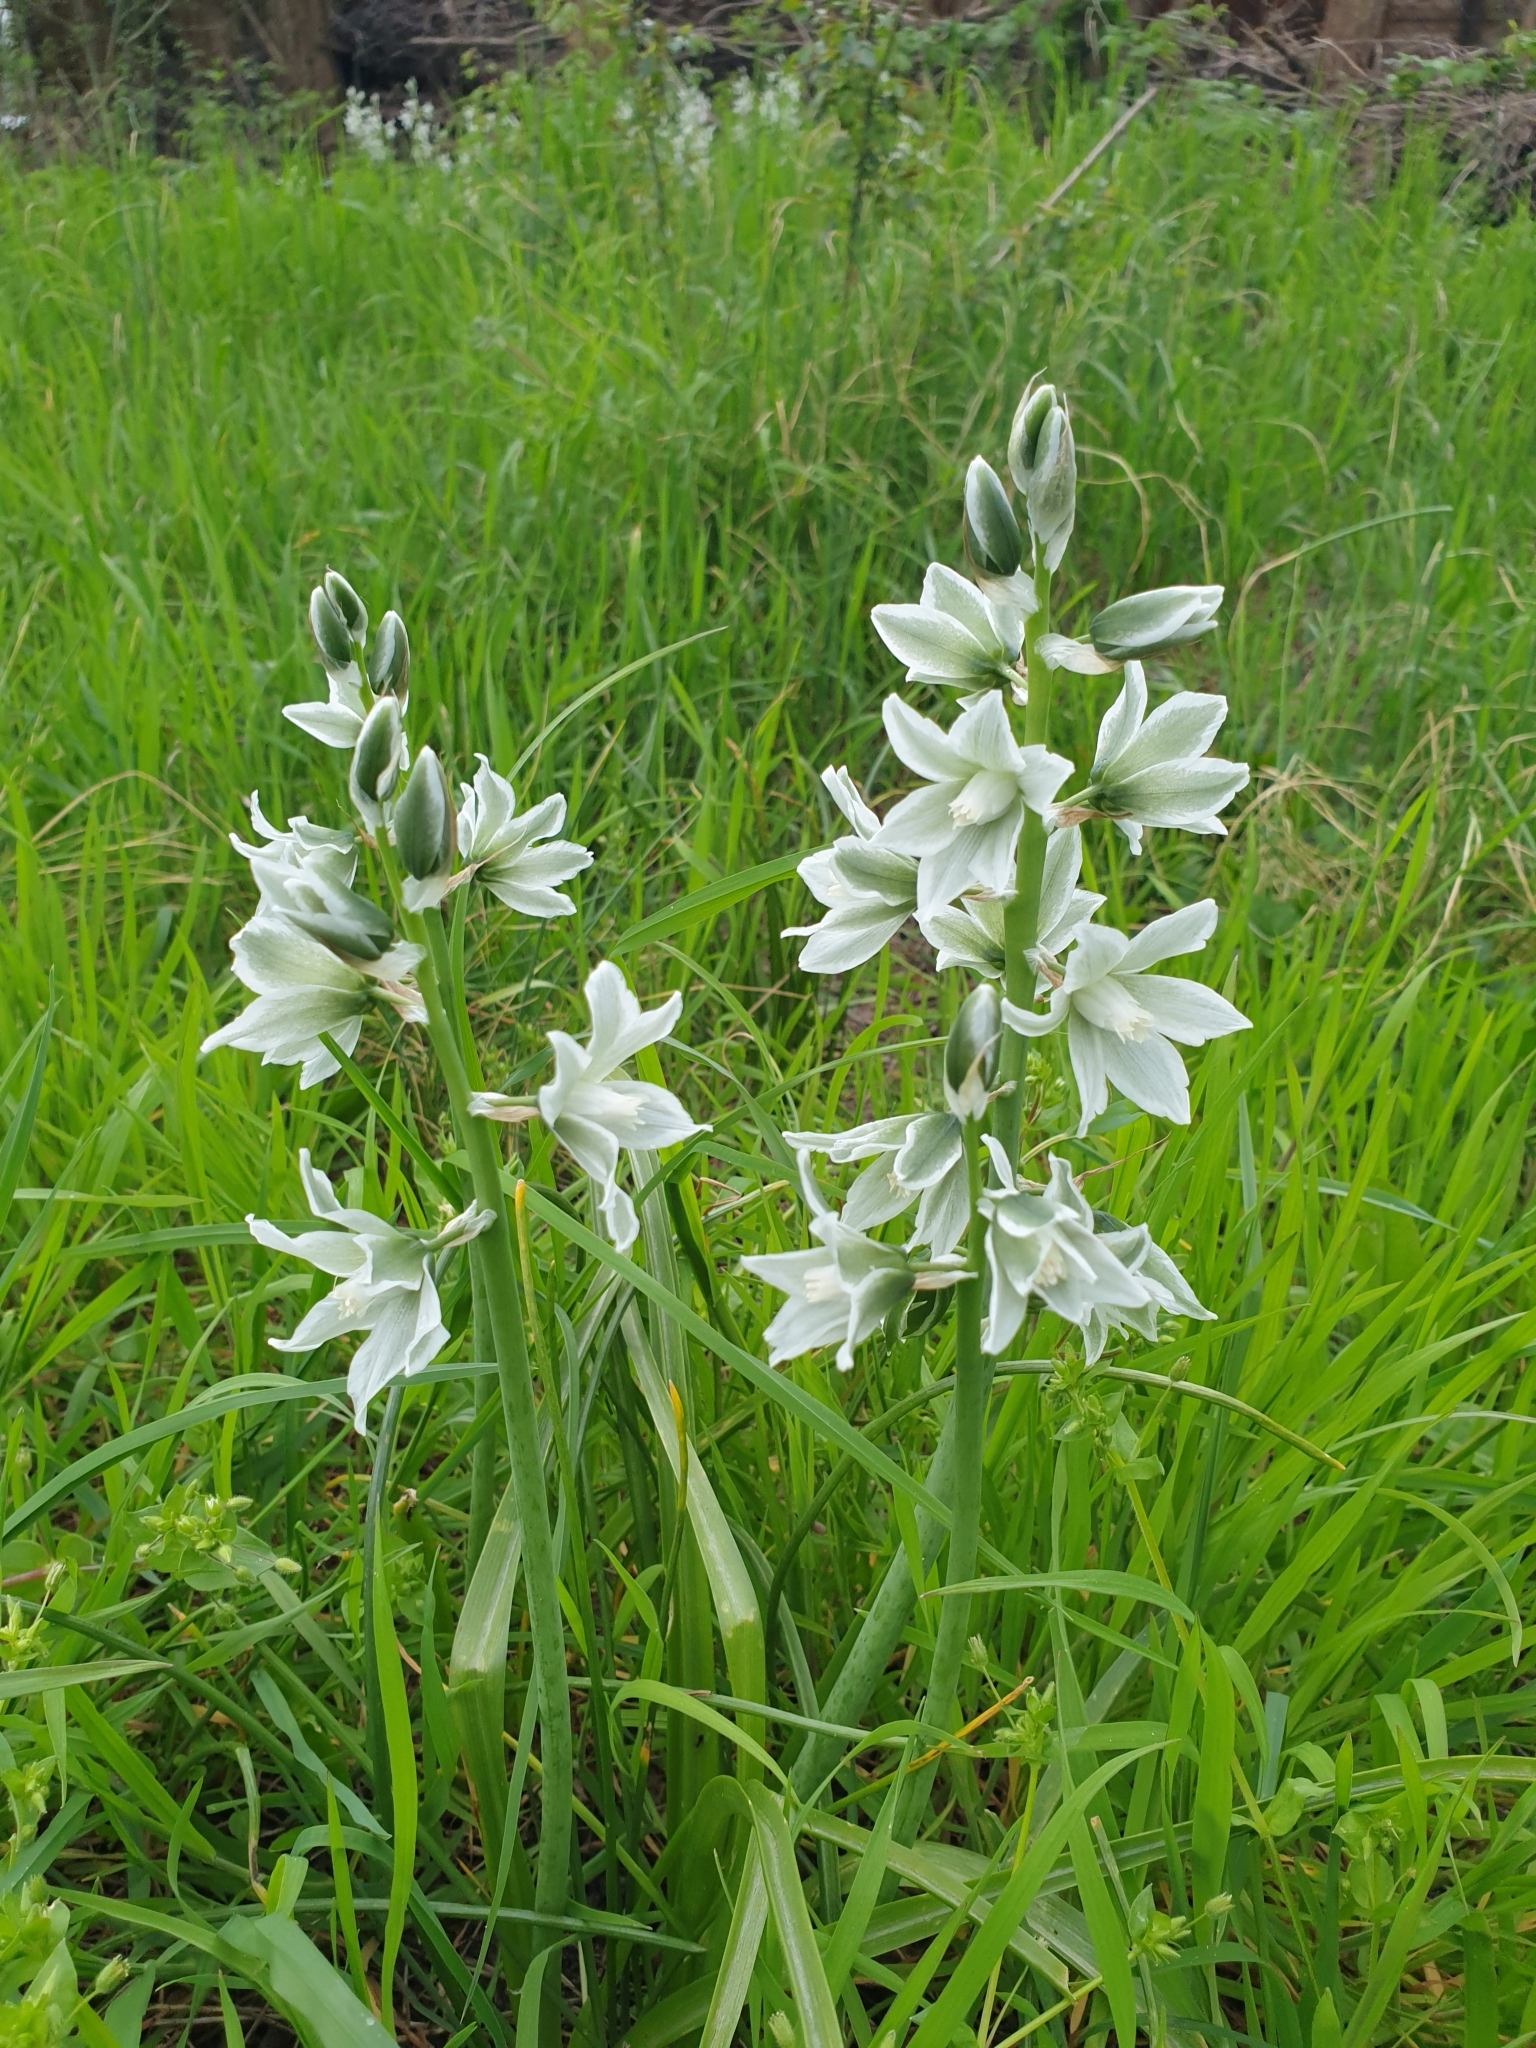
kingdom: Plantae
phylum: Tracheophyta
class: Liliopsida
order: Asparagales
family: Asparagaceae
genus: Ornithogalum
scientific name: Ornithogalum nutans
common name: Drooping star-of-bethlehem
